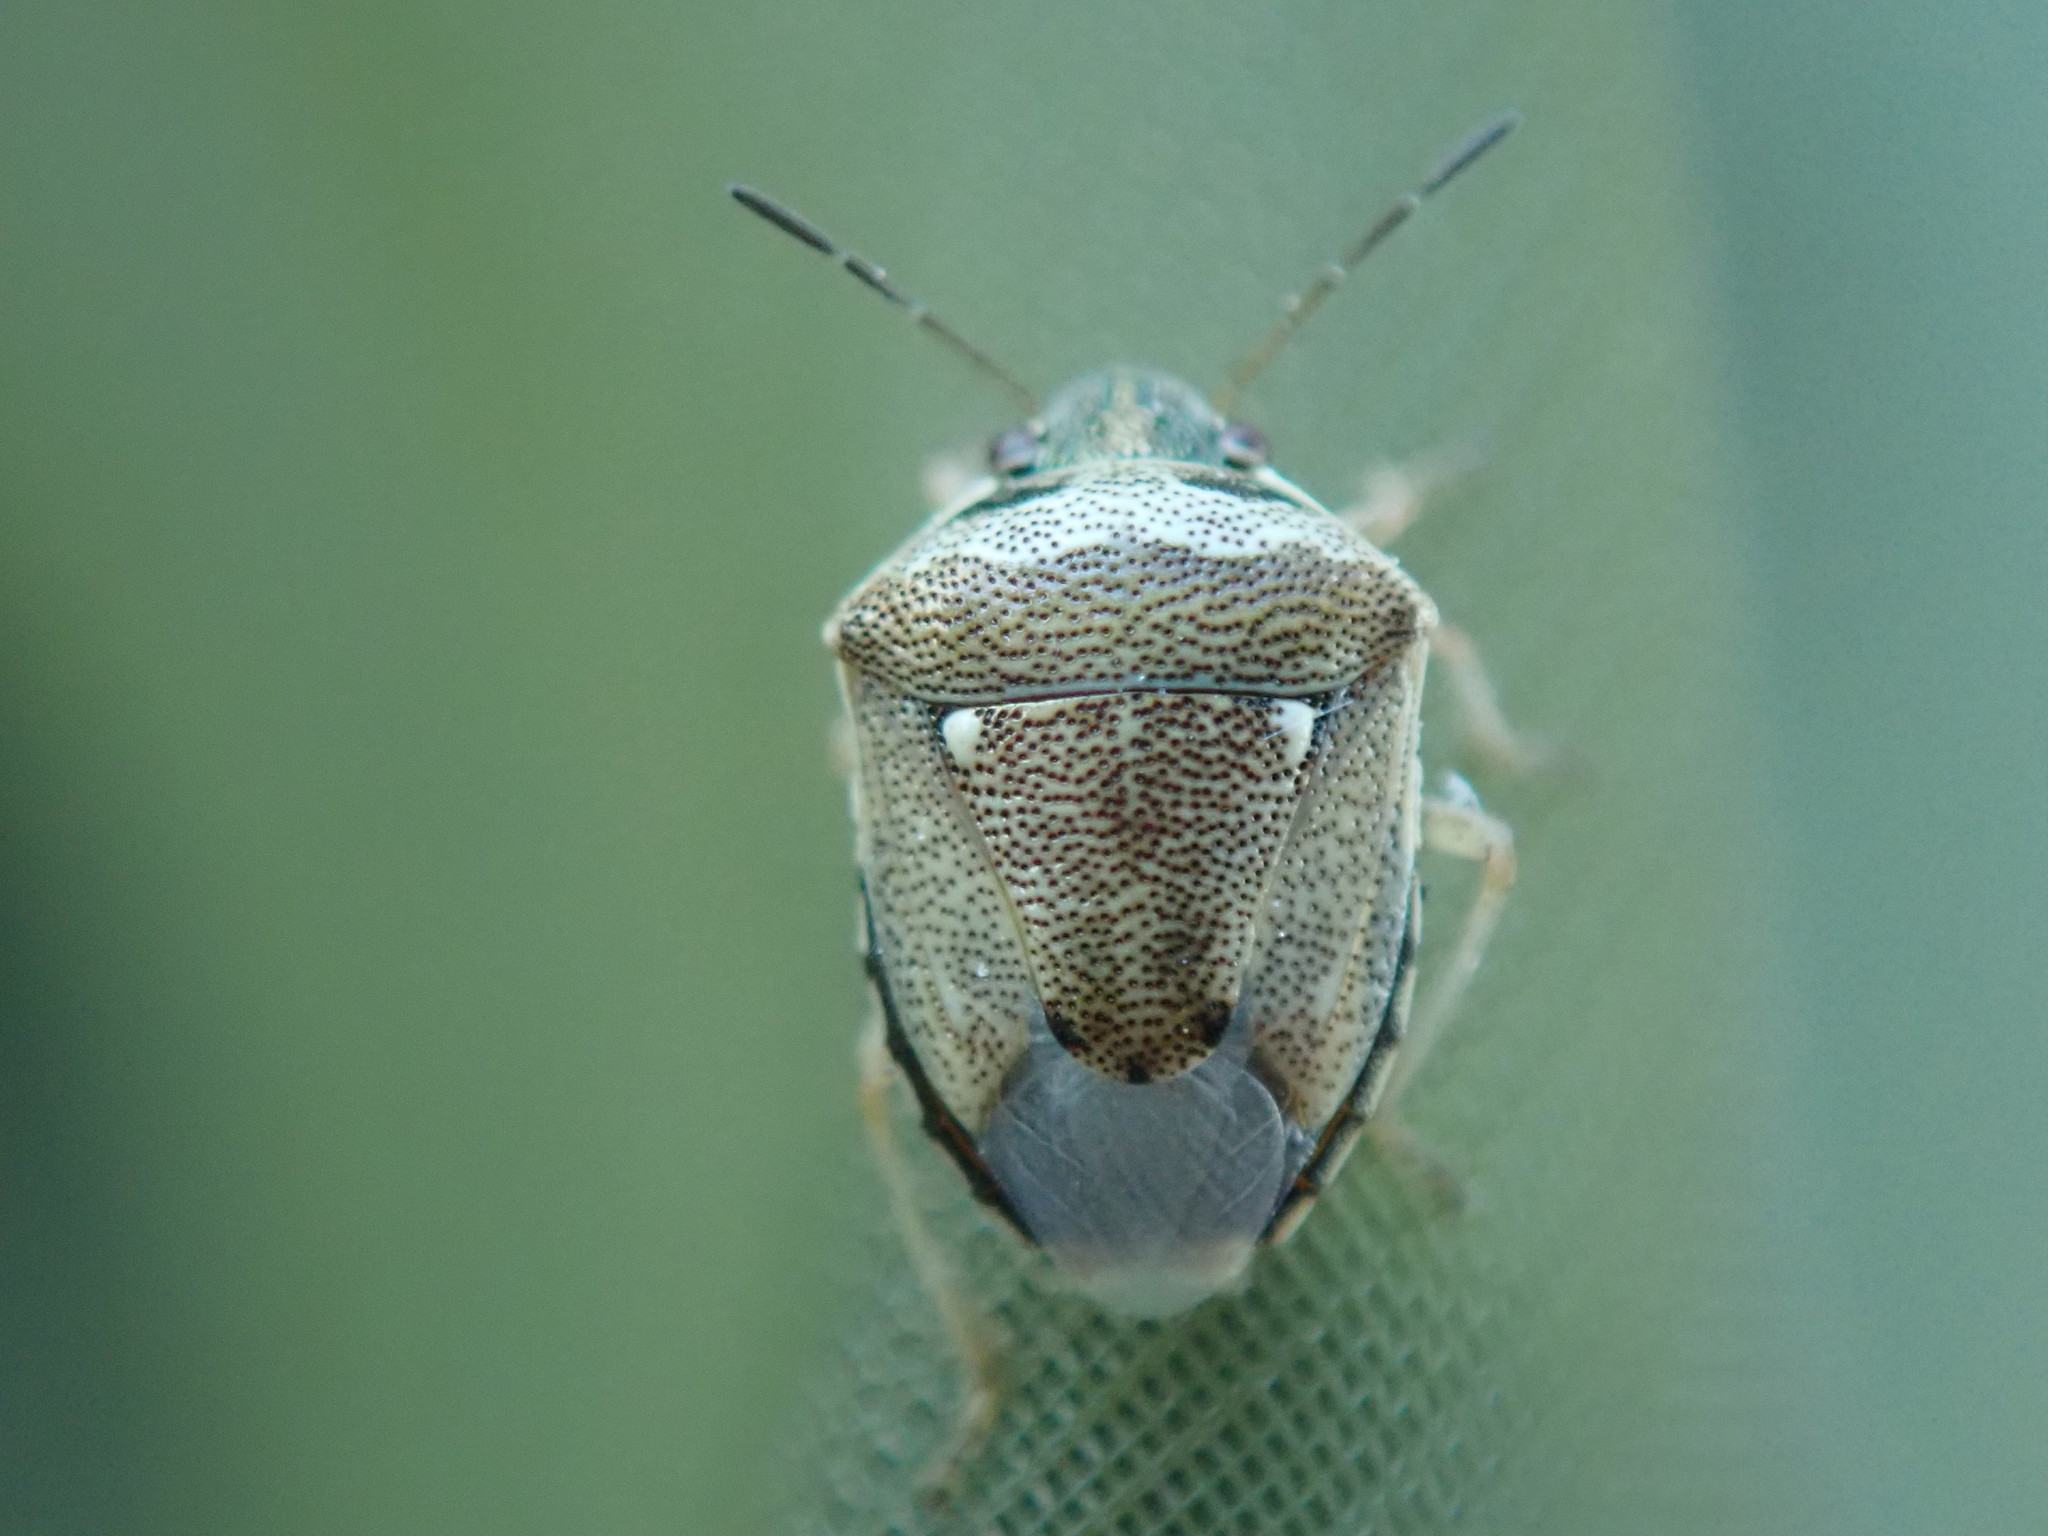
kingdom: Animalia
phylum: Arthropoda
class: Insecta
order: Hemiptera
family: Pentatomidae
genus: Eysarcoris
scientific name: Eysarcoris ventralis
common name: White-spotted stink bug
